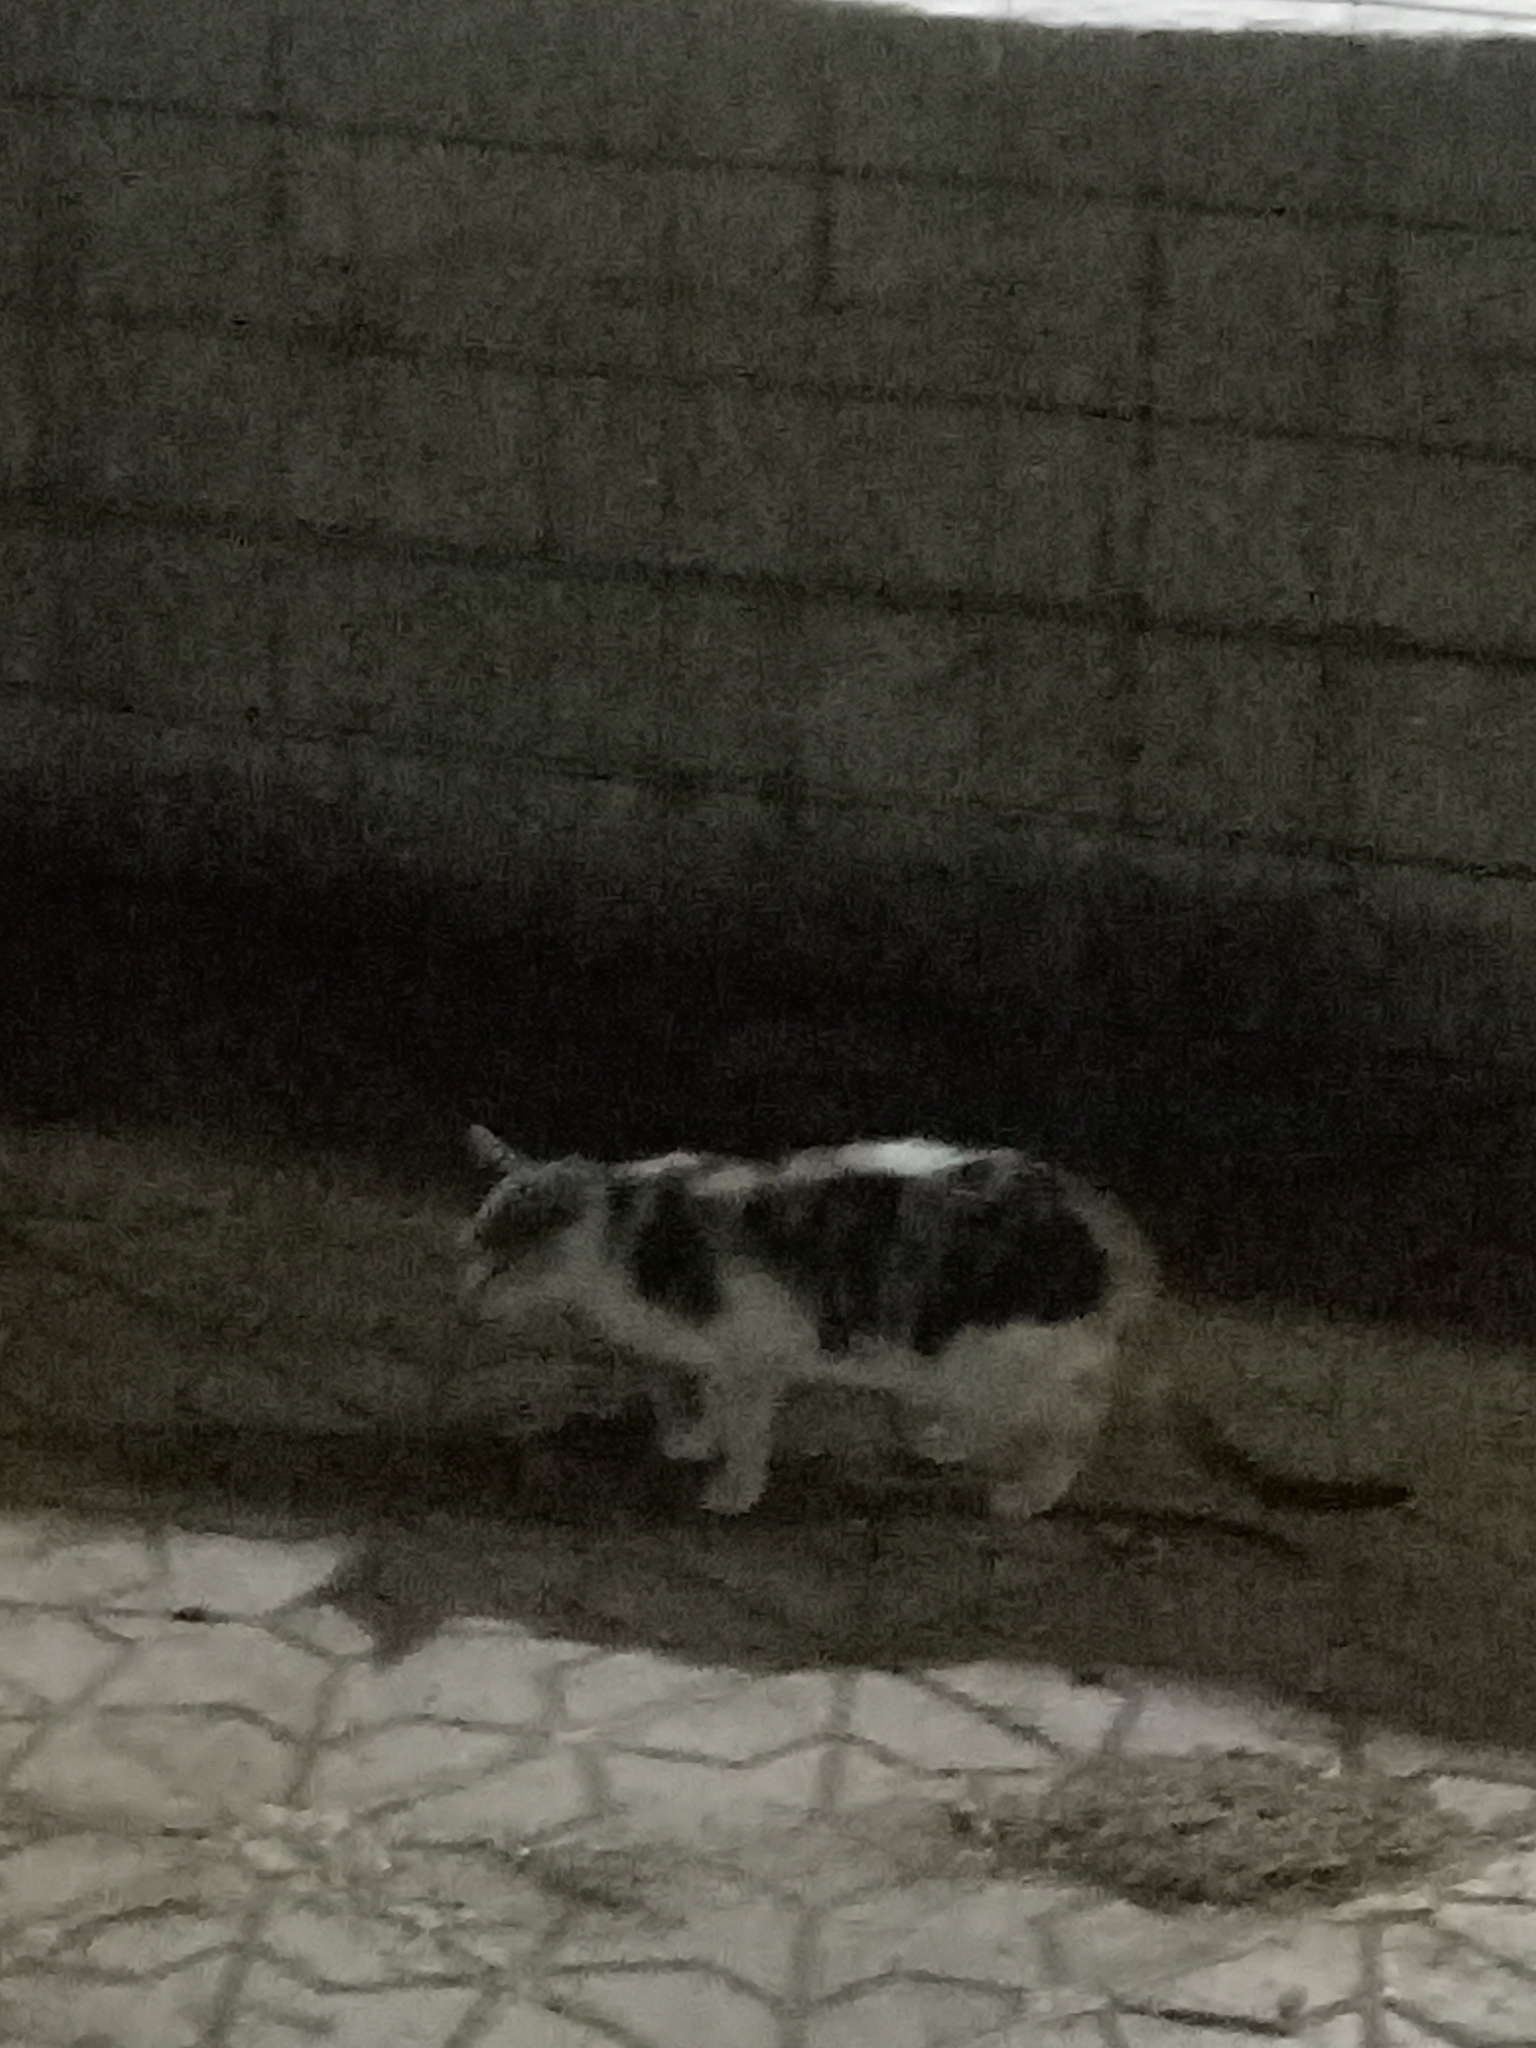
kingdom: Animalia
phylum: Chordata
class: Mammalia
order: Carnivora
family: Felidae
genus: Felis
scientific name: Felis catus
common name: Domestic cat
